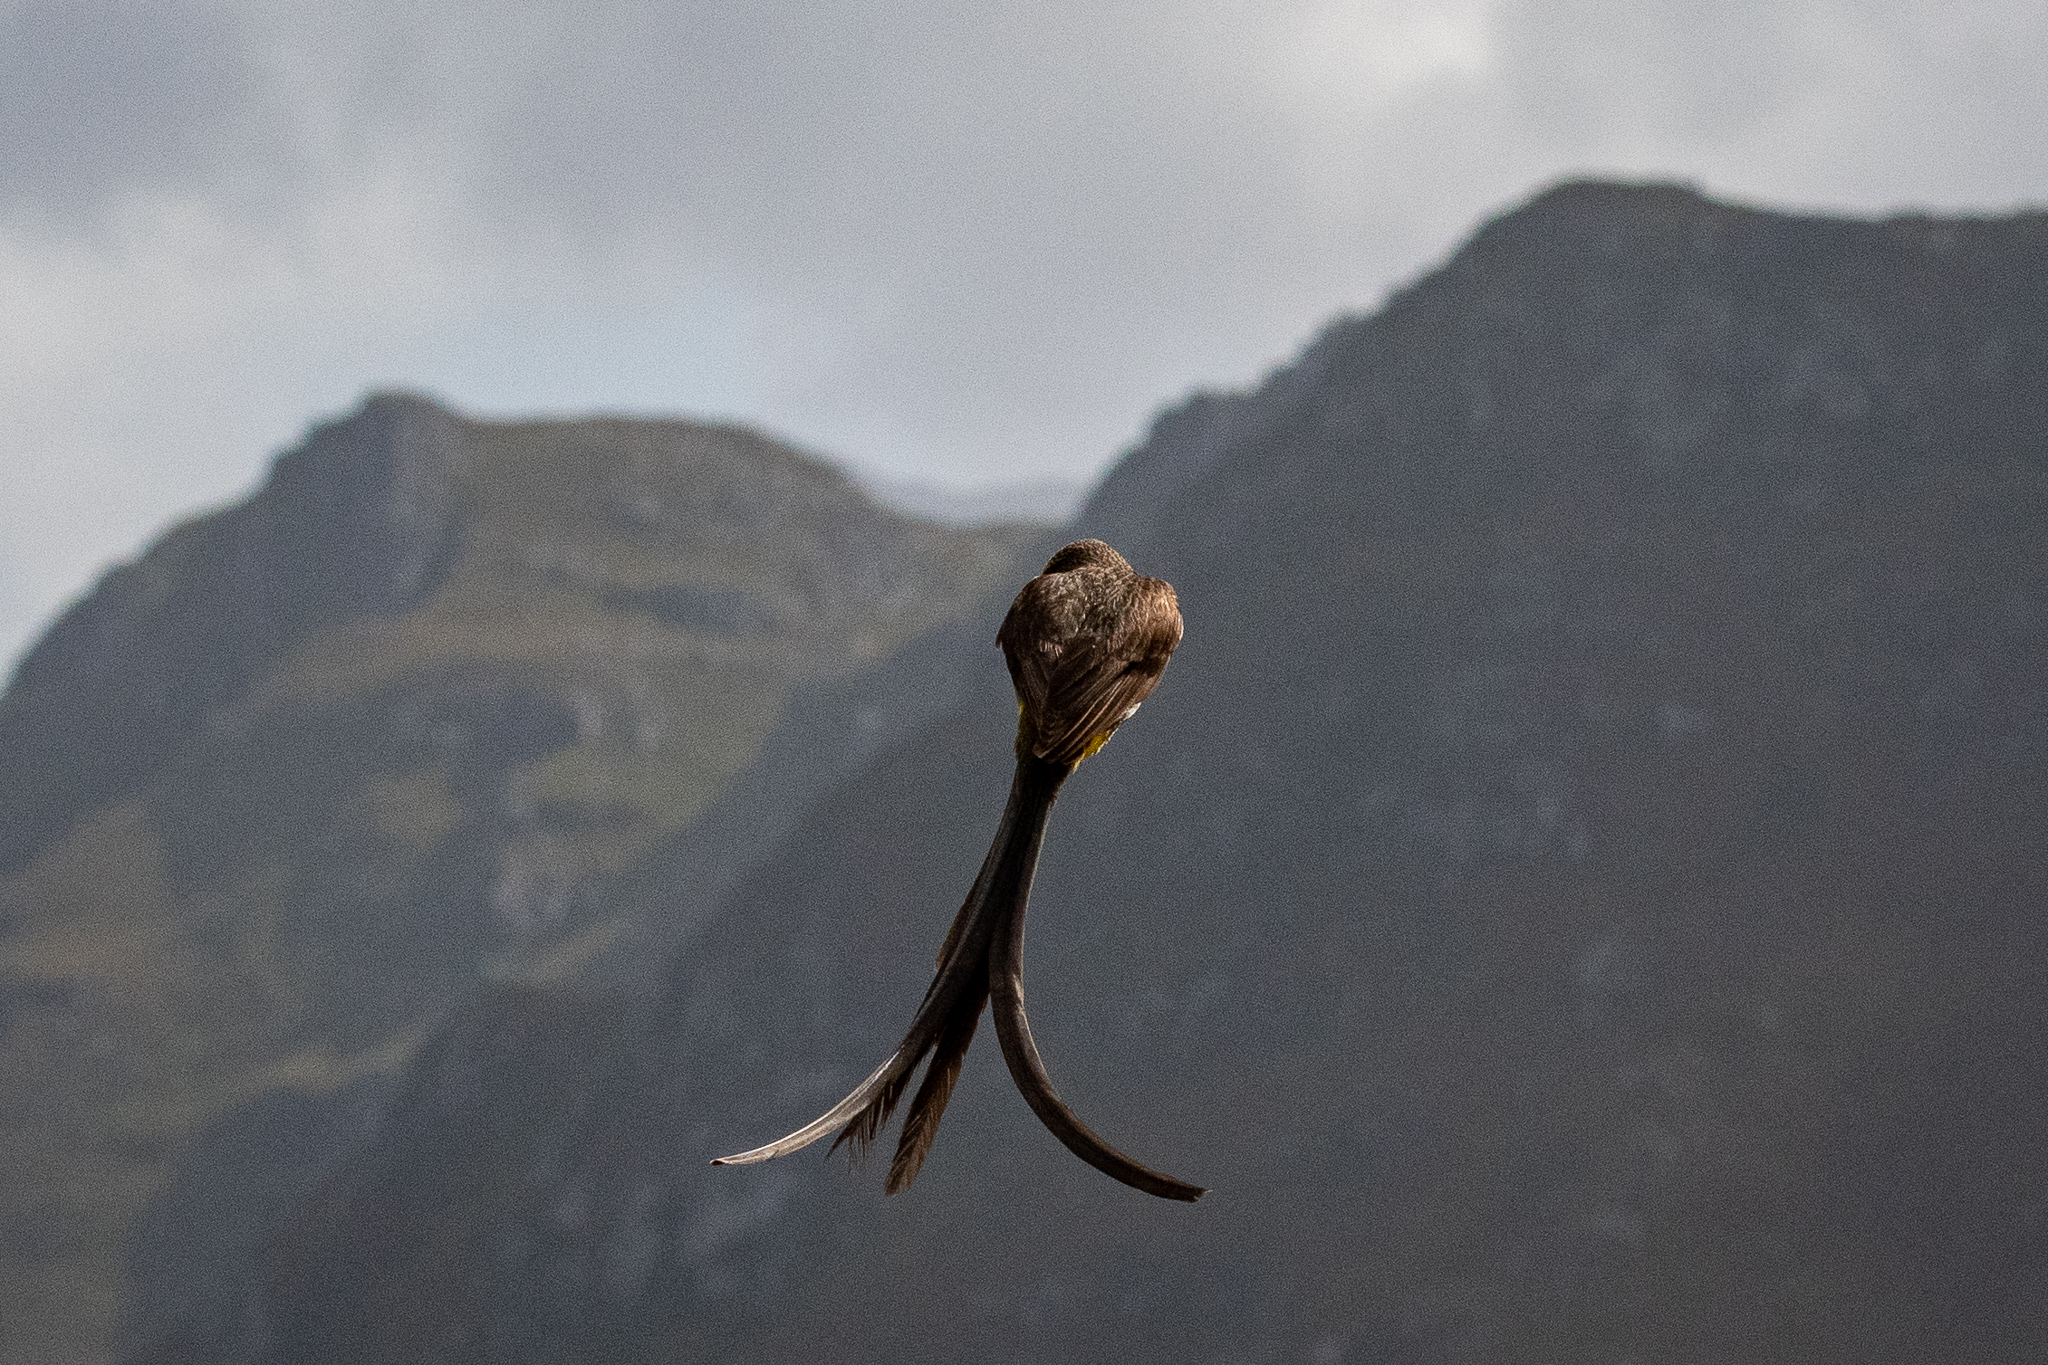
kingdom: Animalia
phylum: Chordata
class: Aves
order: Passeriformes
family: Promeropidae
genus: Promerops
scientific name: Promerops cafer
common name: Cape sugarbird
